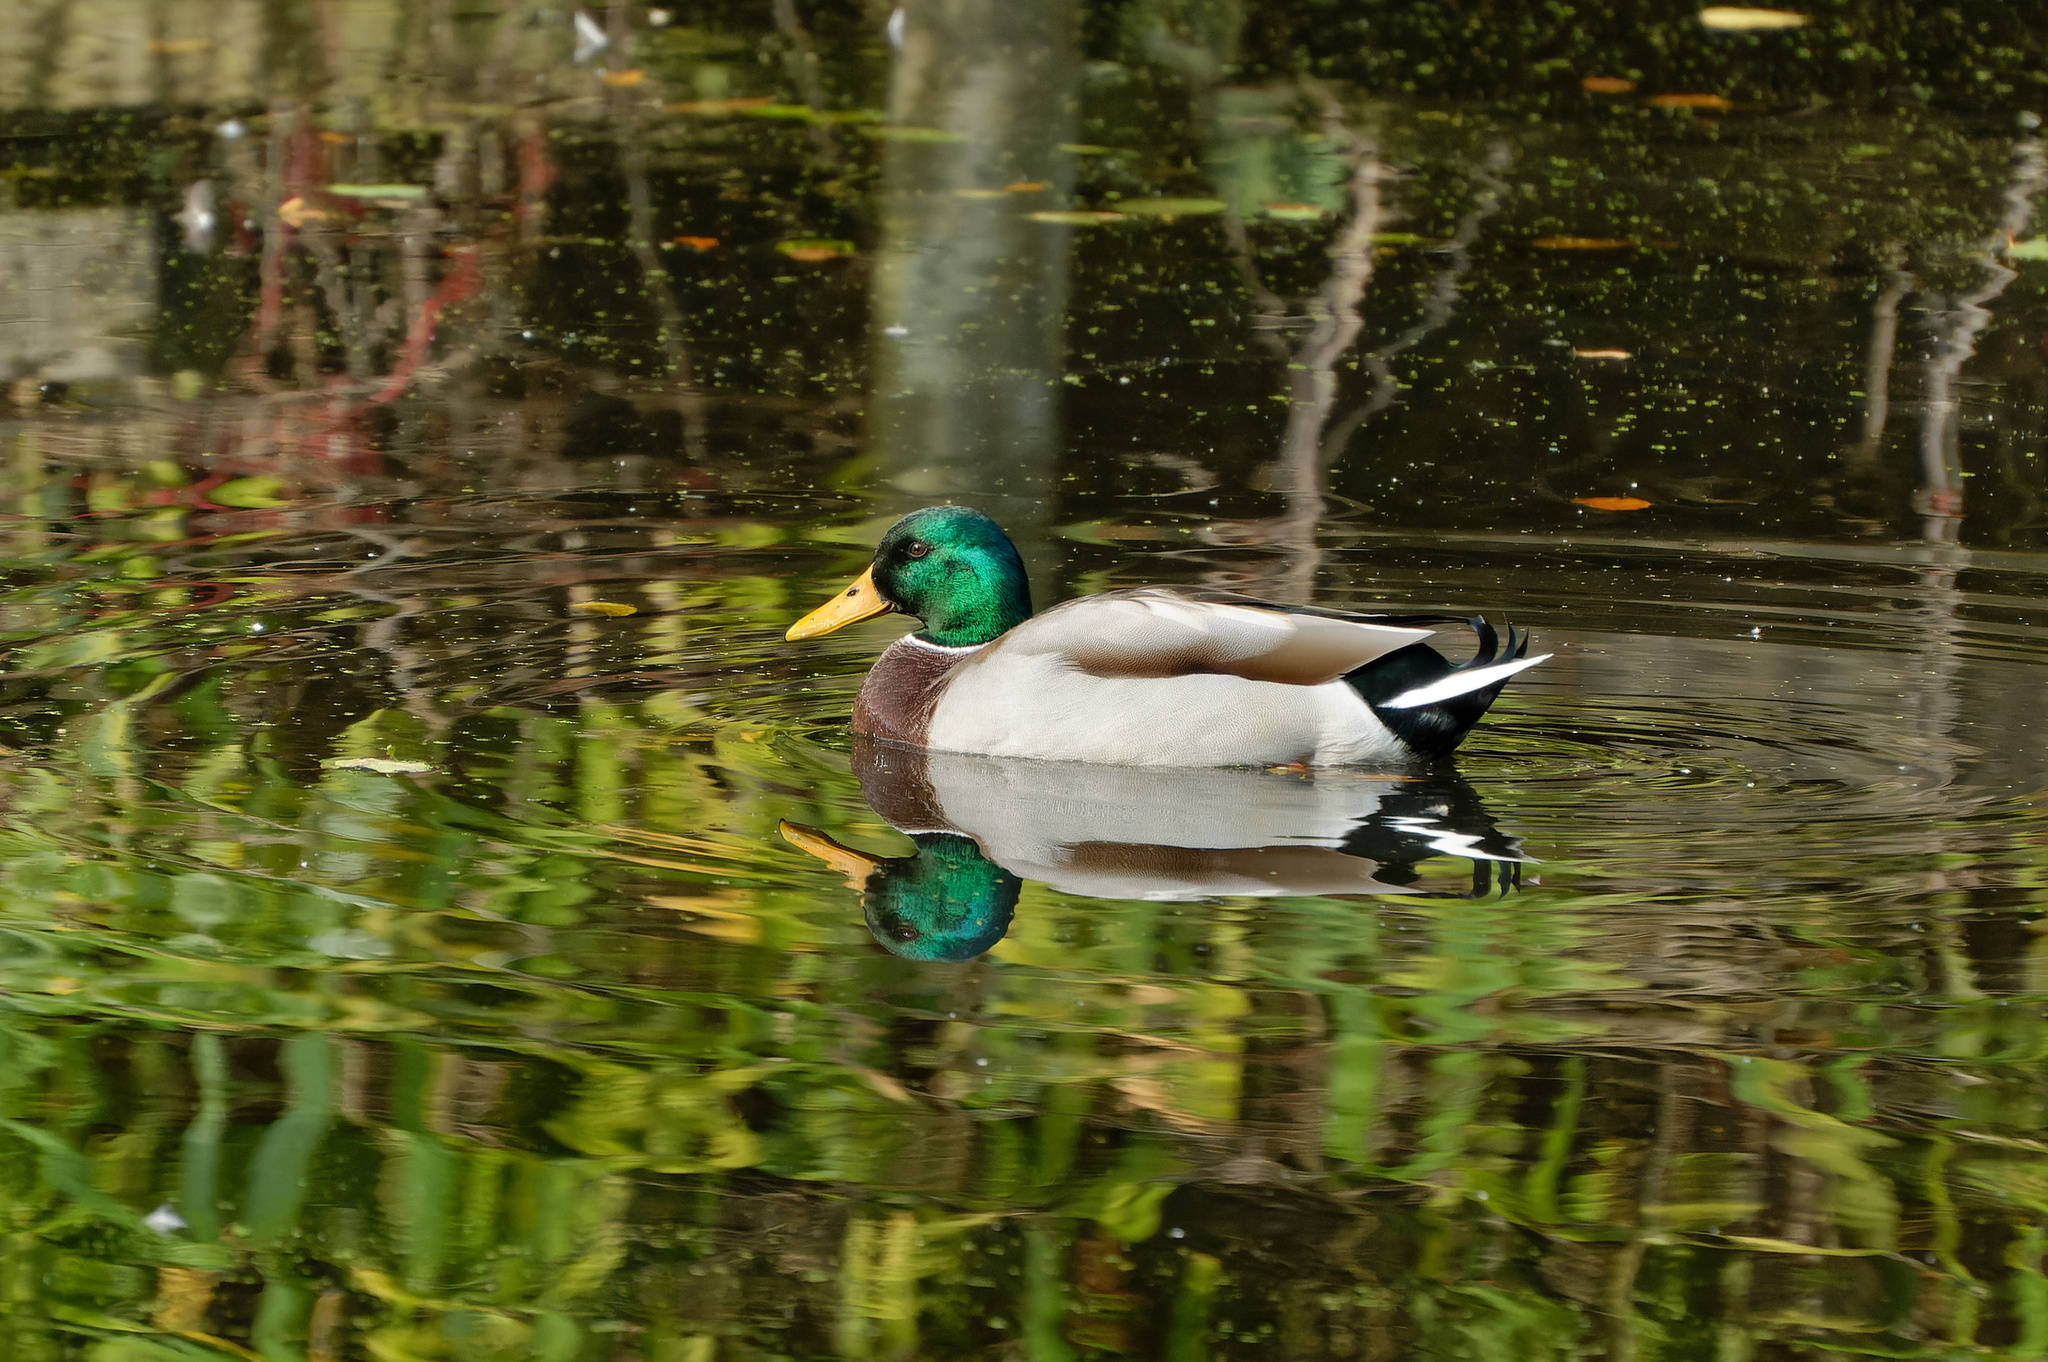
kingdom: Animalia
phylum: Chordata
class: Aves
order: Anseriformes
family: Anatidae
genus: Anas
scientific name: Anas platyrhynchos
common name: Mallard
